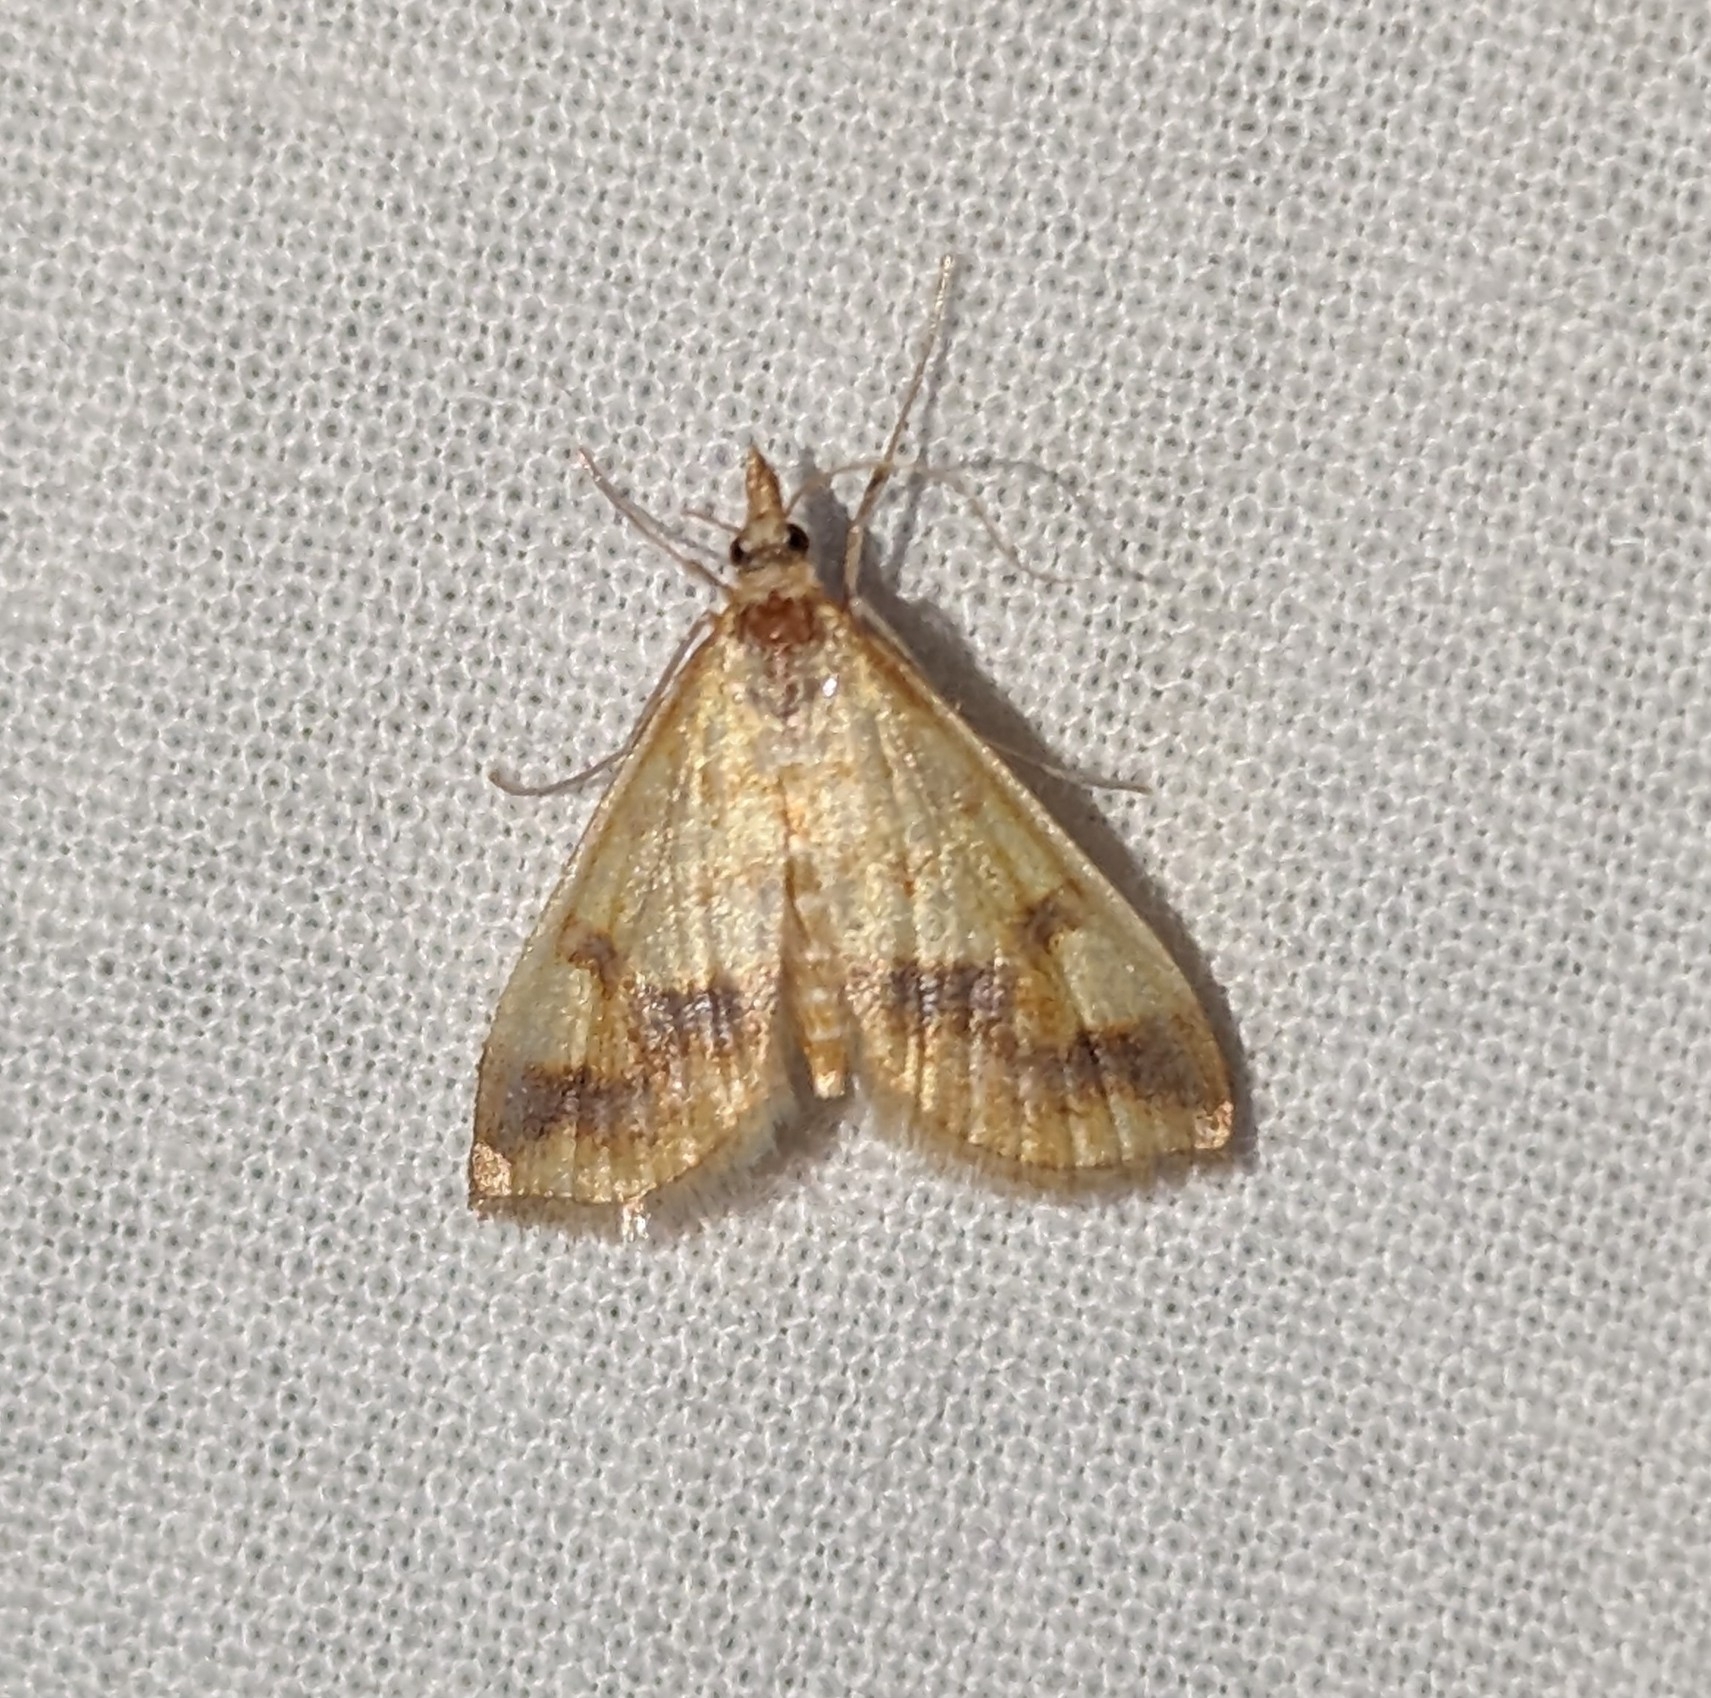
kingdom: Animalia
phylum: Arthropoda
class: Insecta
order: Lepidoptera
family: Crambidae
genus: Choristostigma
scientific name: Choristostigma plumbosignalis
